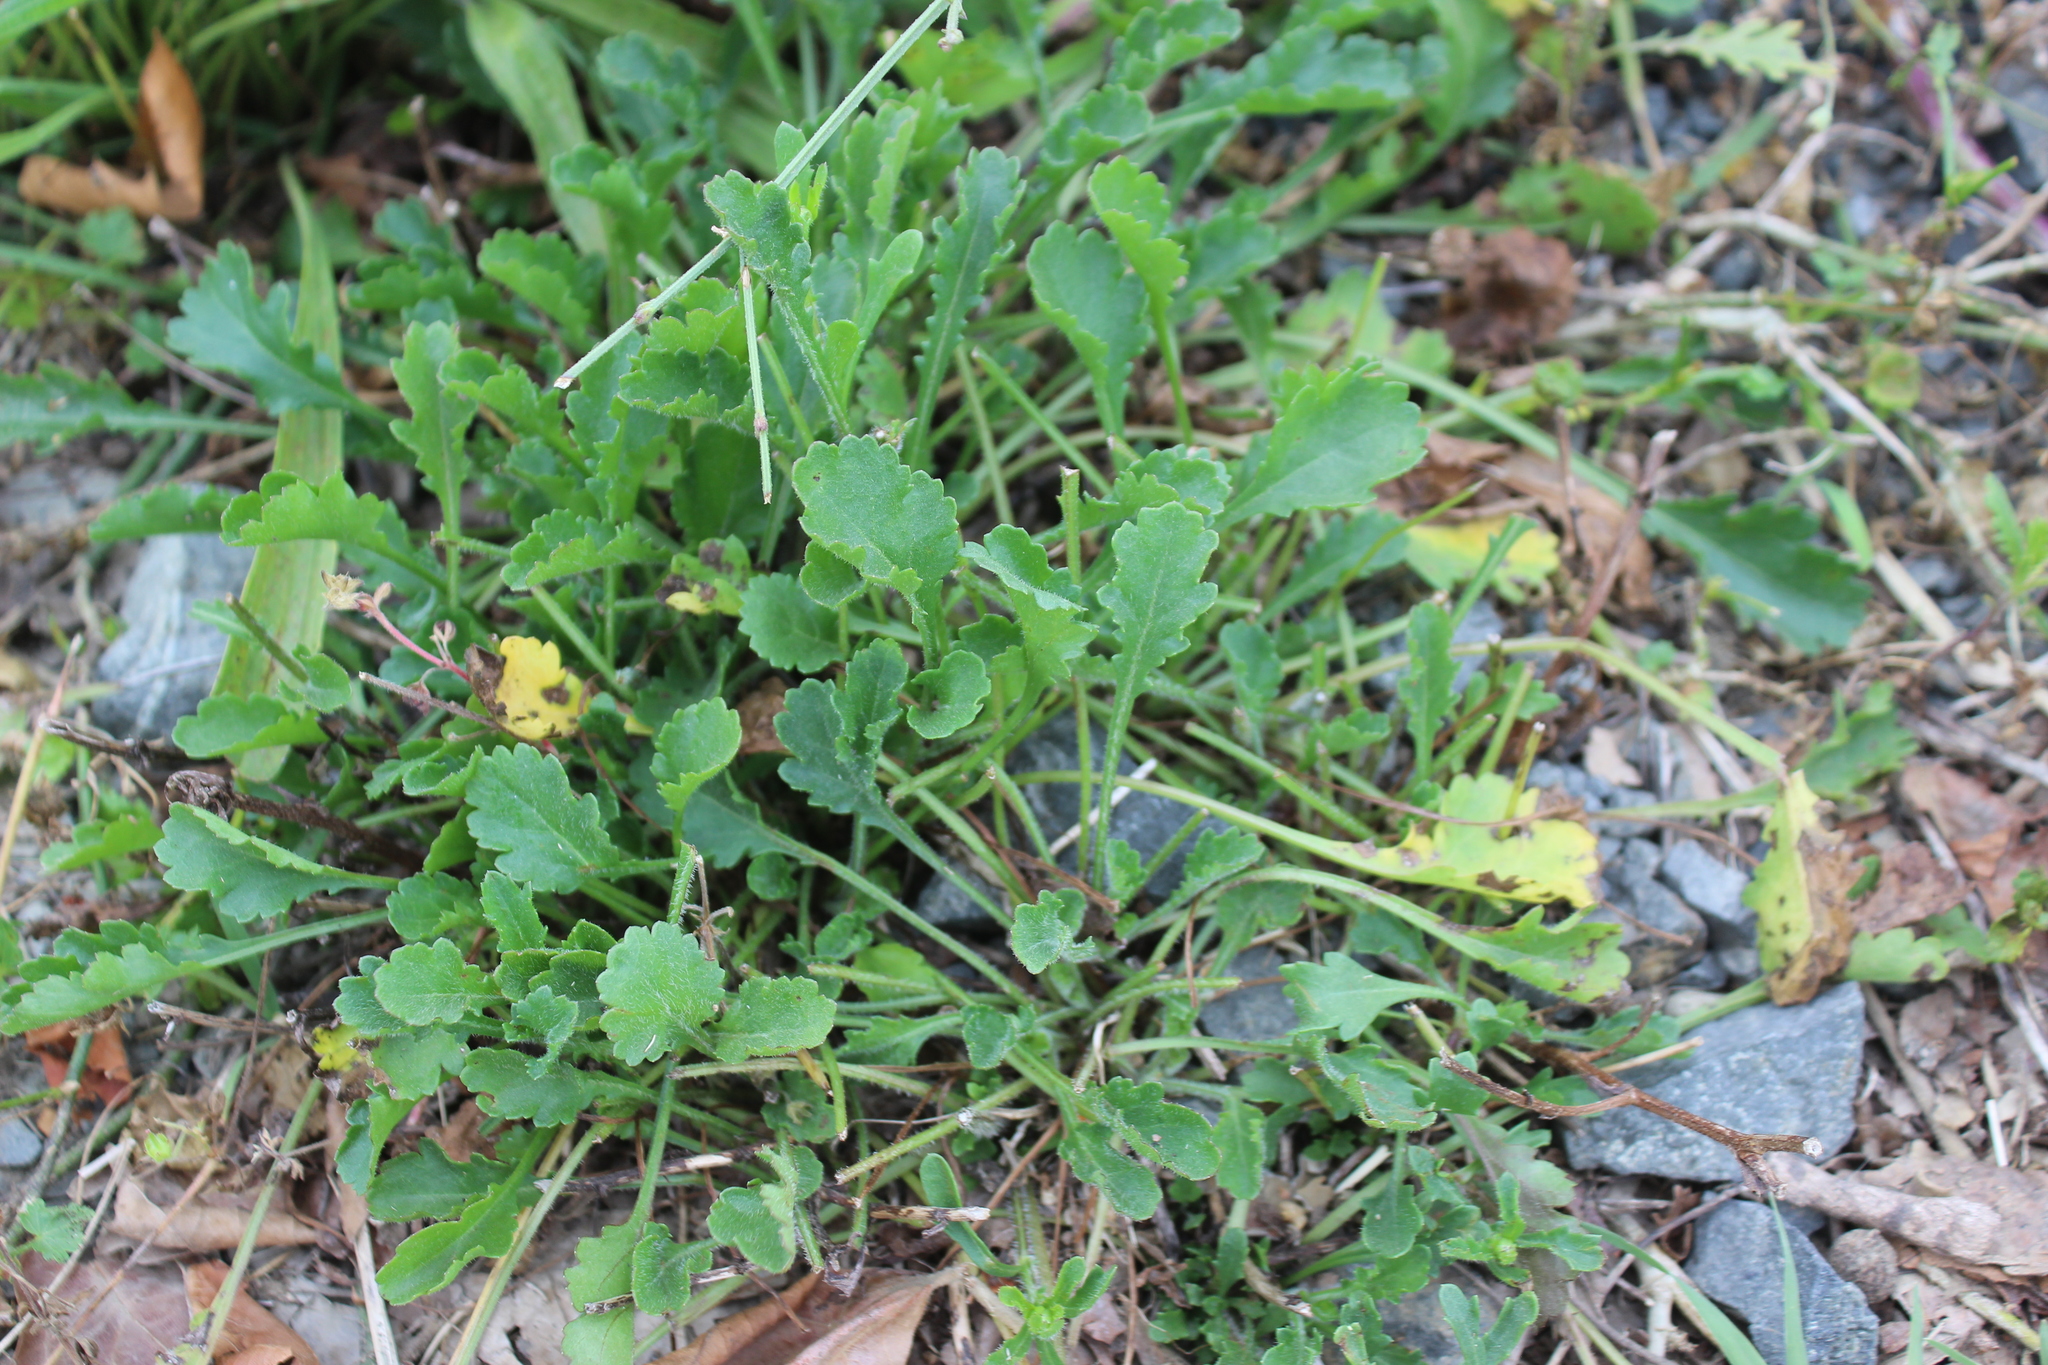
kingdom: Plantae
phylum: Tracheophyta
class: Magnoliopsida
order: Asterales
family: Asteraceae
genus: Leucanthemum
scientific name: Leucanthemum vulgare
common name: Oxeye daisy
